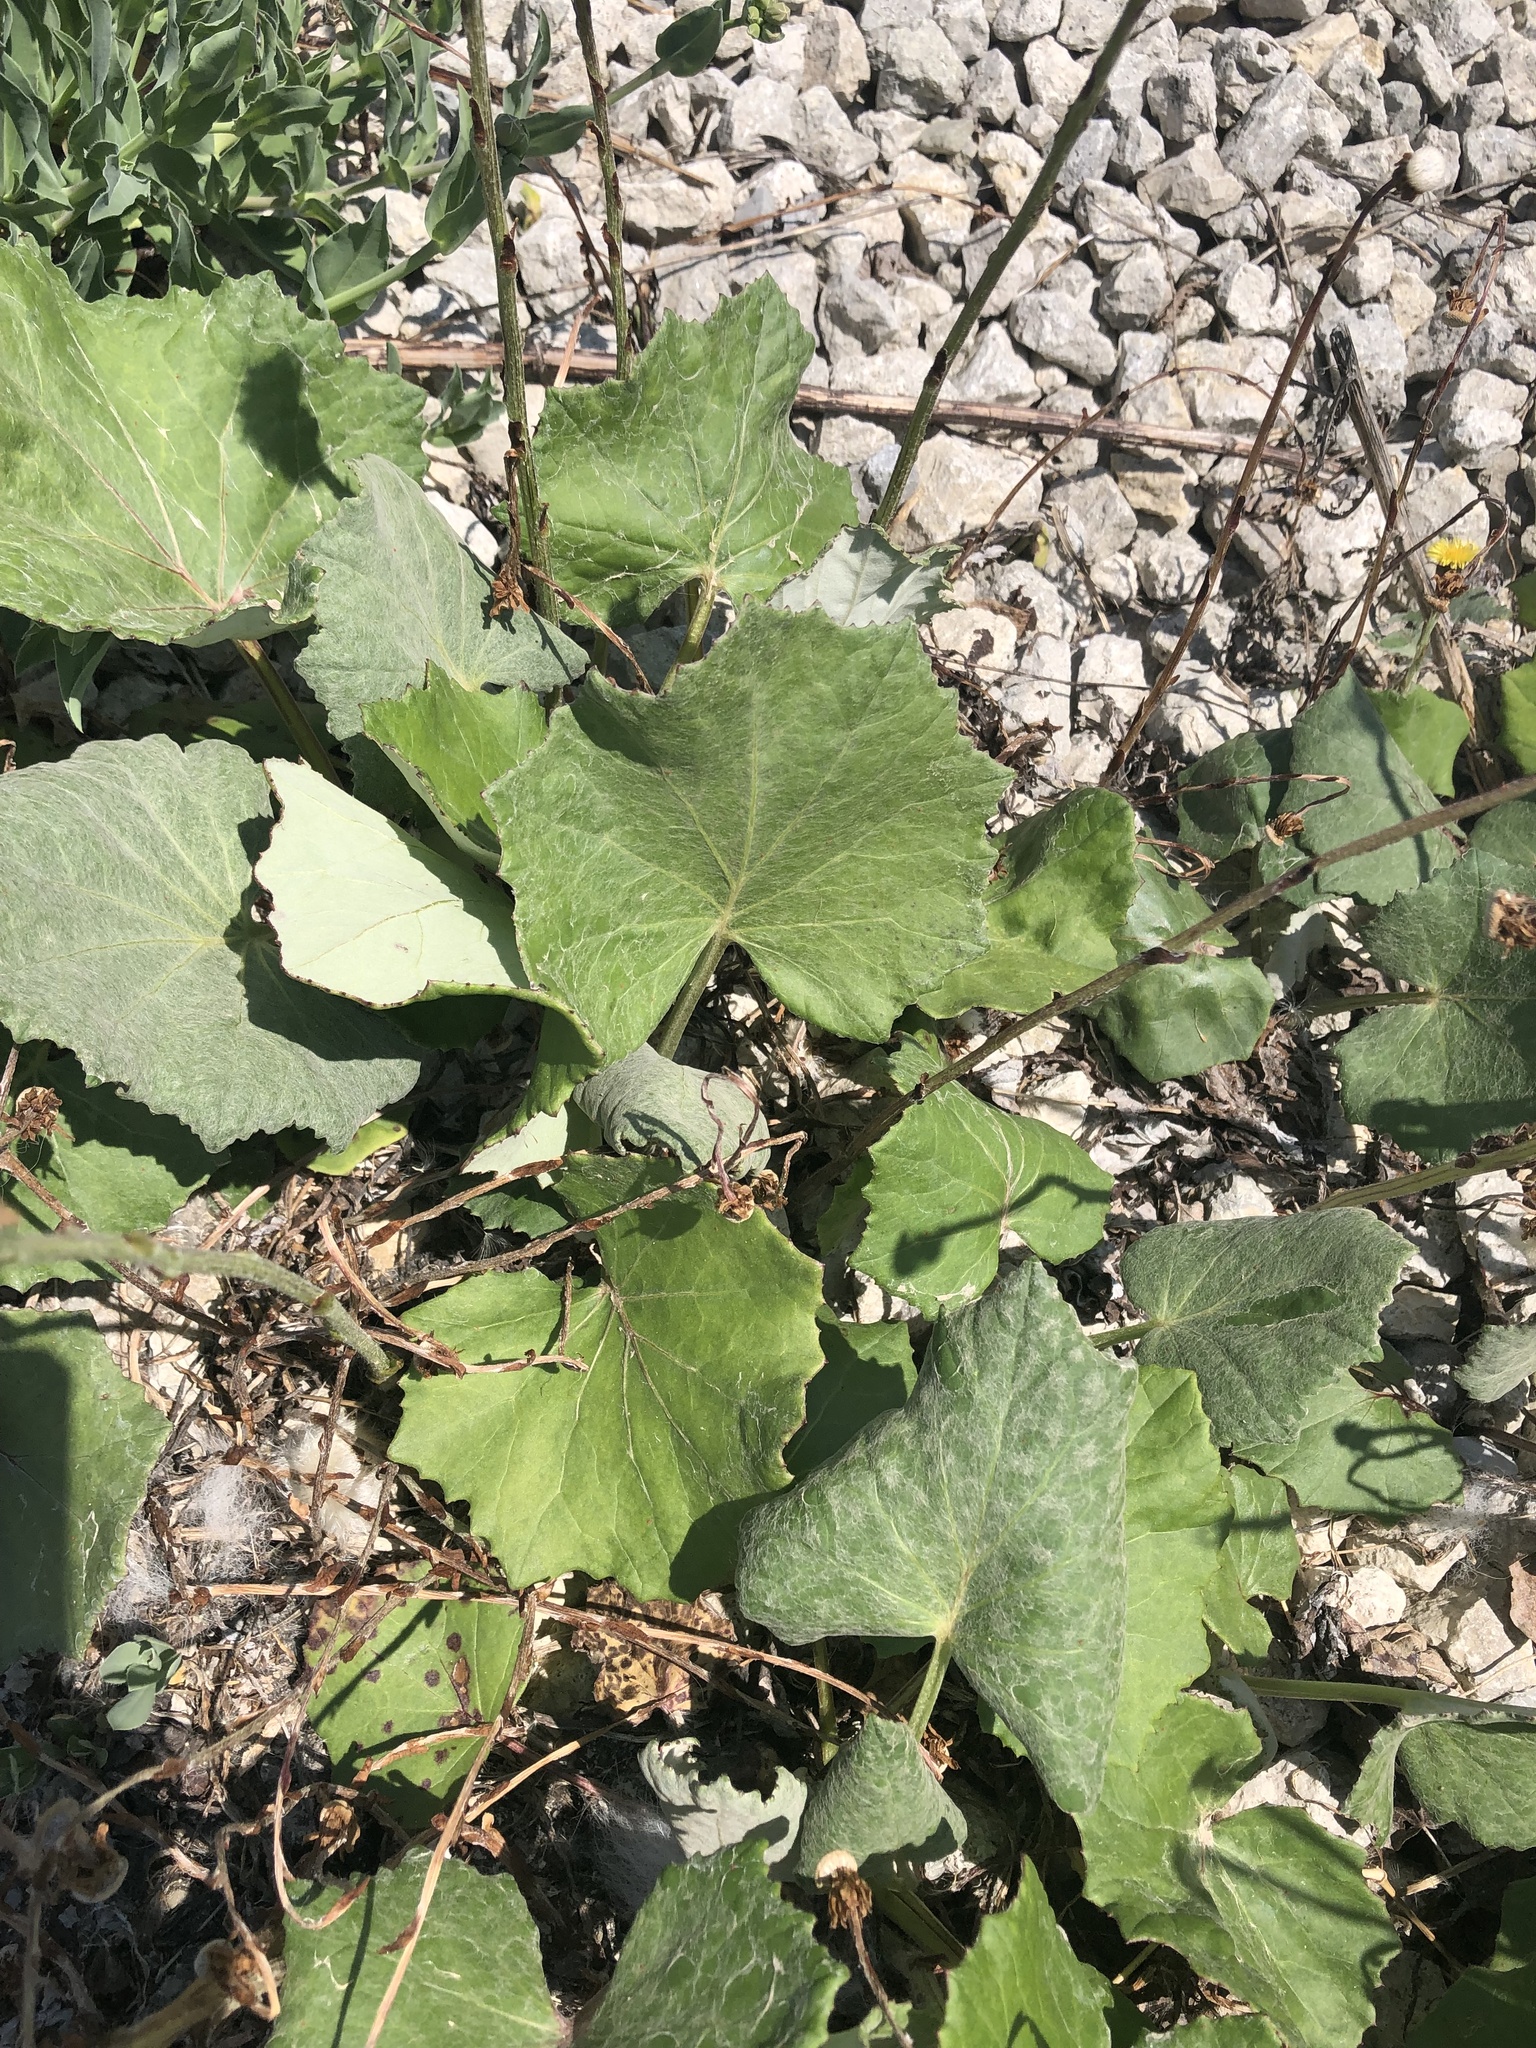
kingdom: Plantae
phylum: Tracheophyta
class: Magnoliopsida
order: Asterales
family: Asteraceae
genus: Tussilago
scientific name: Tussilago farfara
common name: Coltsfoot
